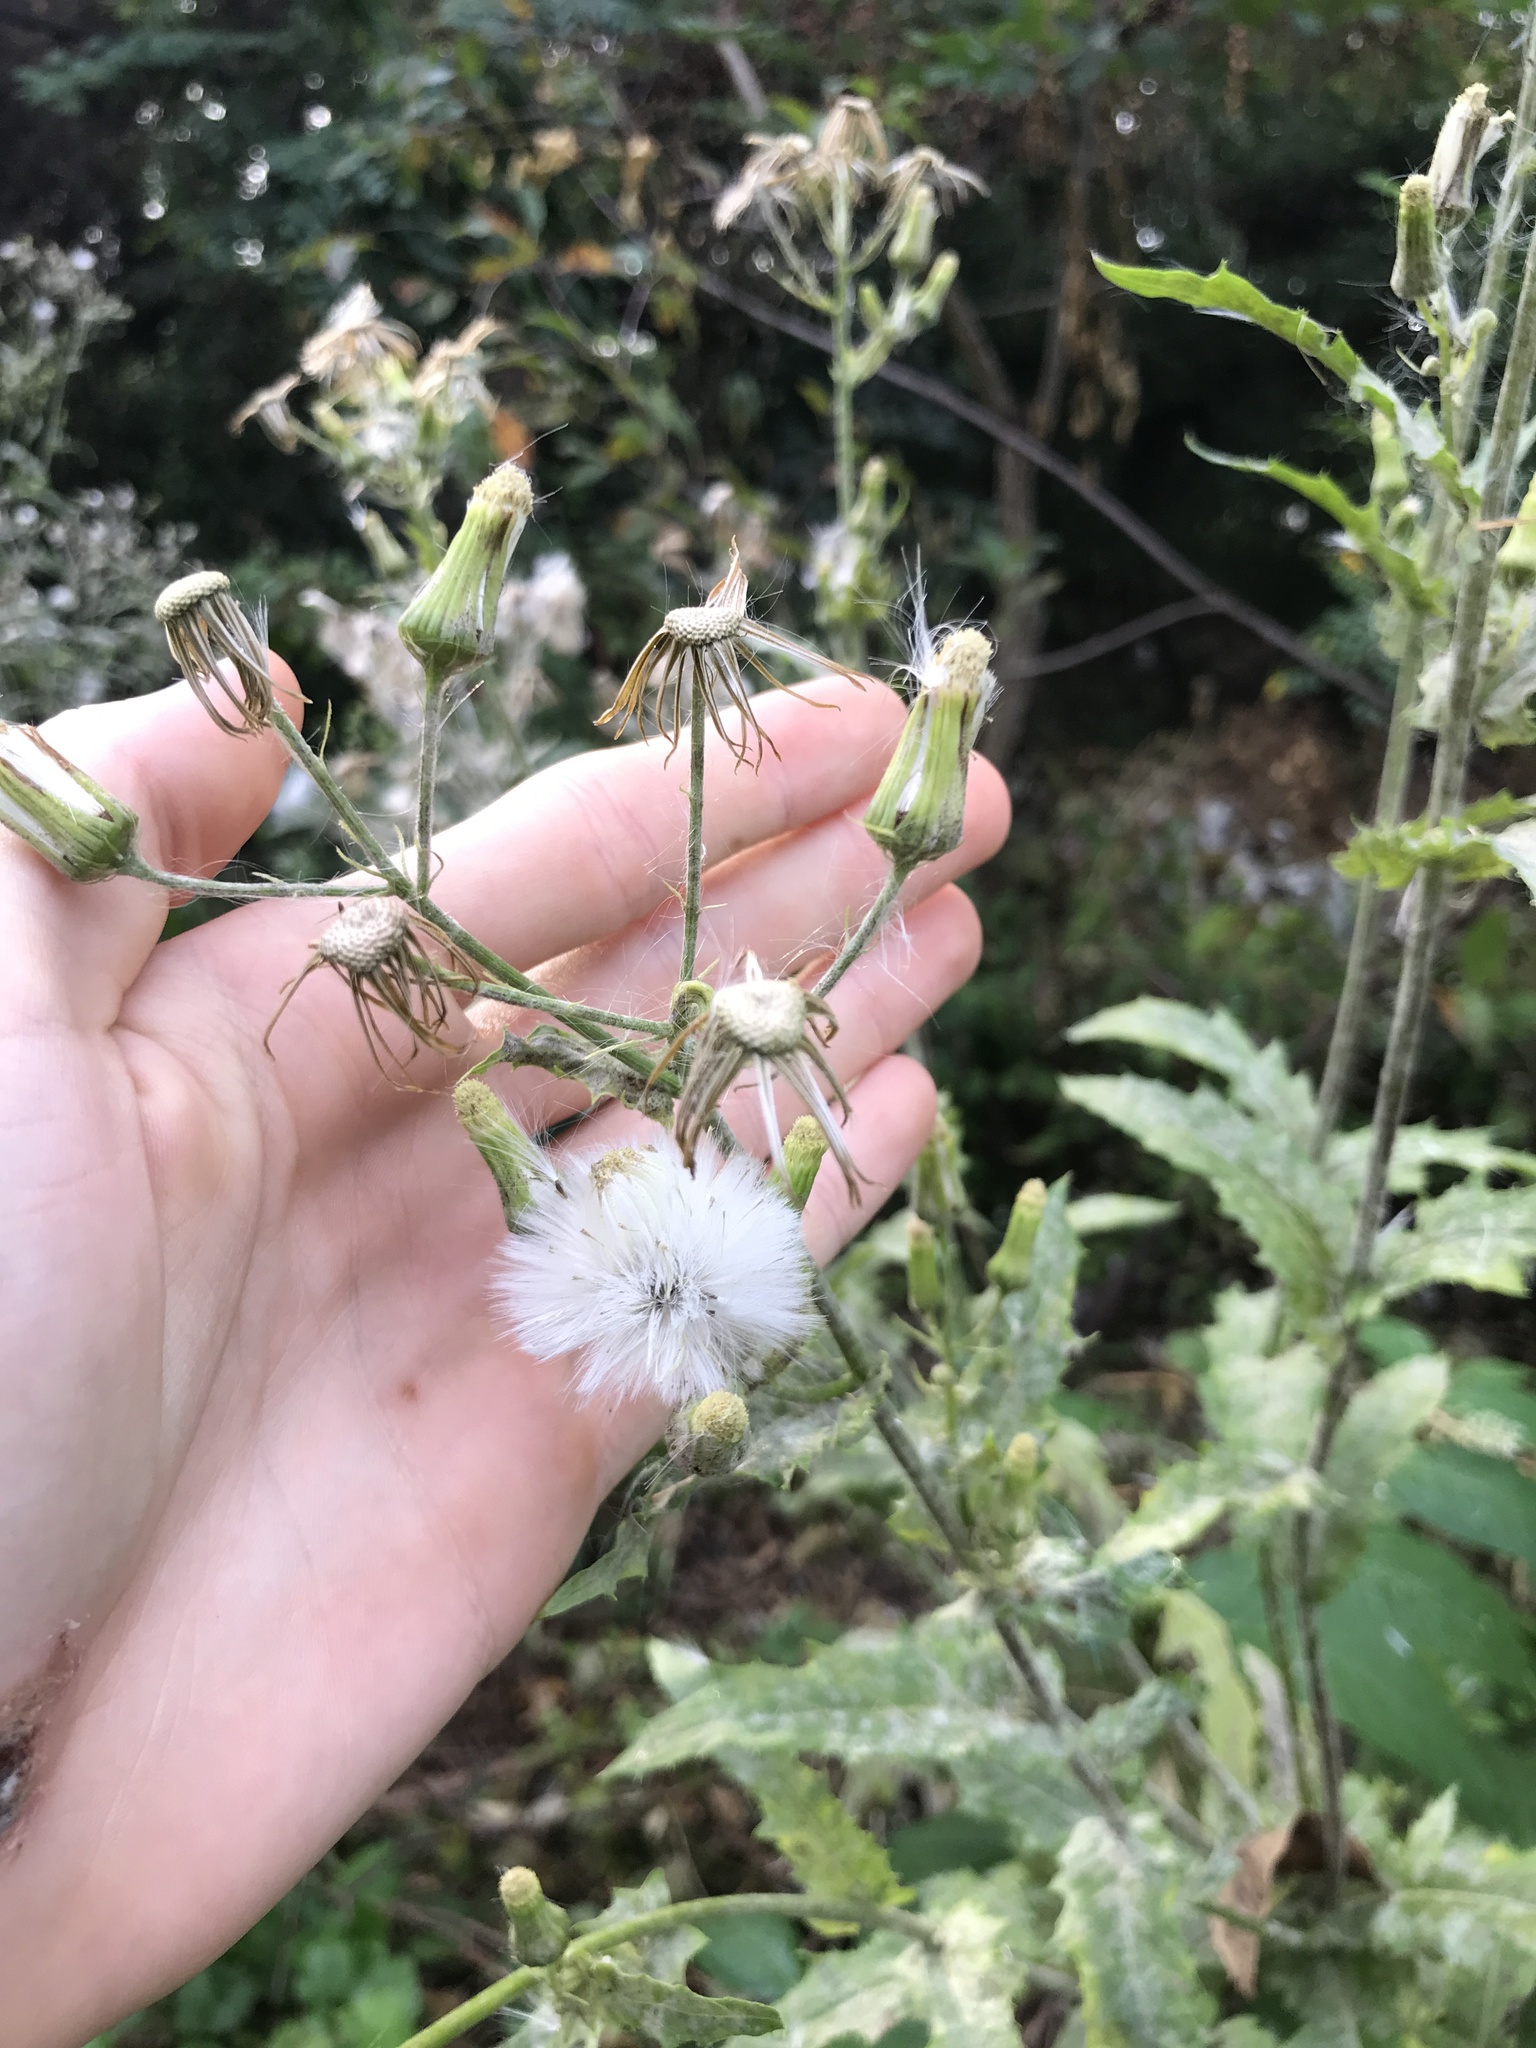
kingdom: Plantae
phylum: Tracheophyta
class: Magnoliopsida
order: Asterales
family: Asteraceae
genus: Erechtites
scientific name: Erechtites hieraciifolius
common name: American burnweed
